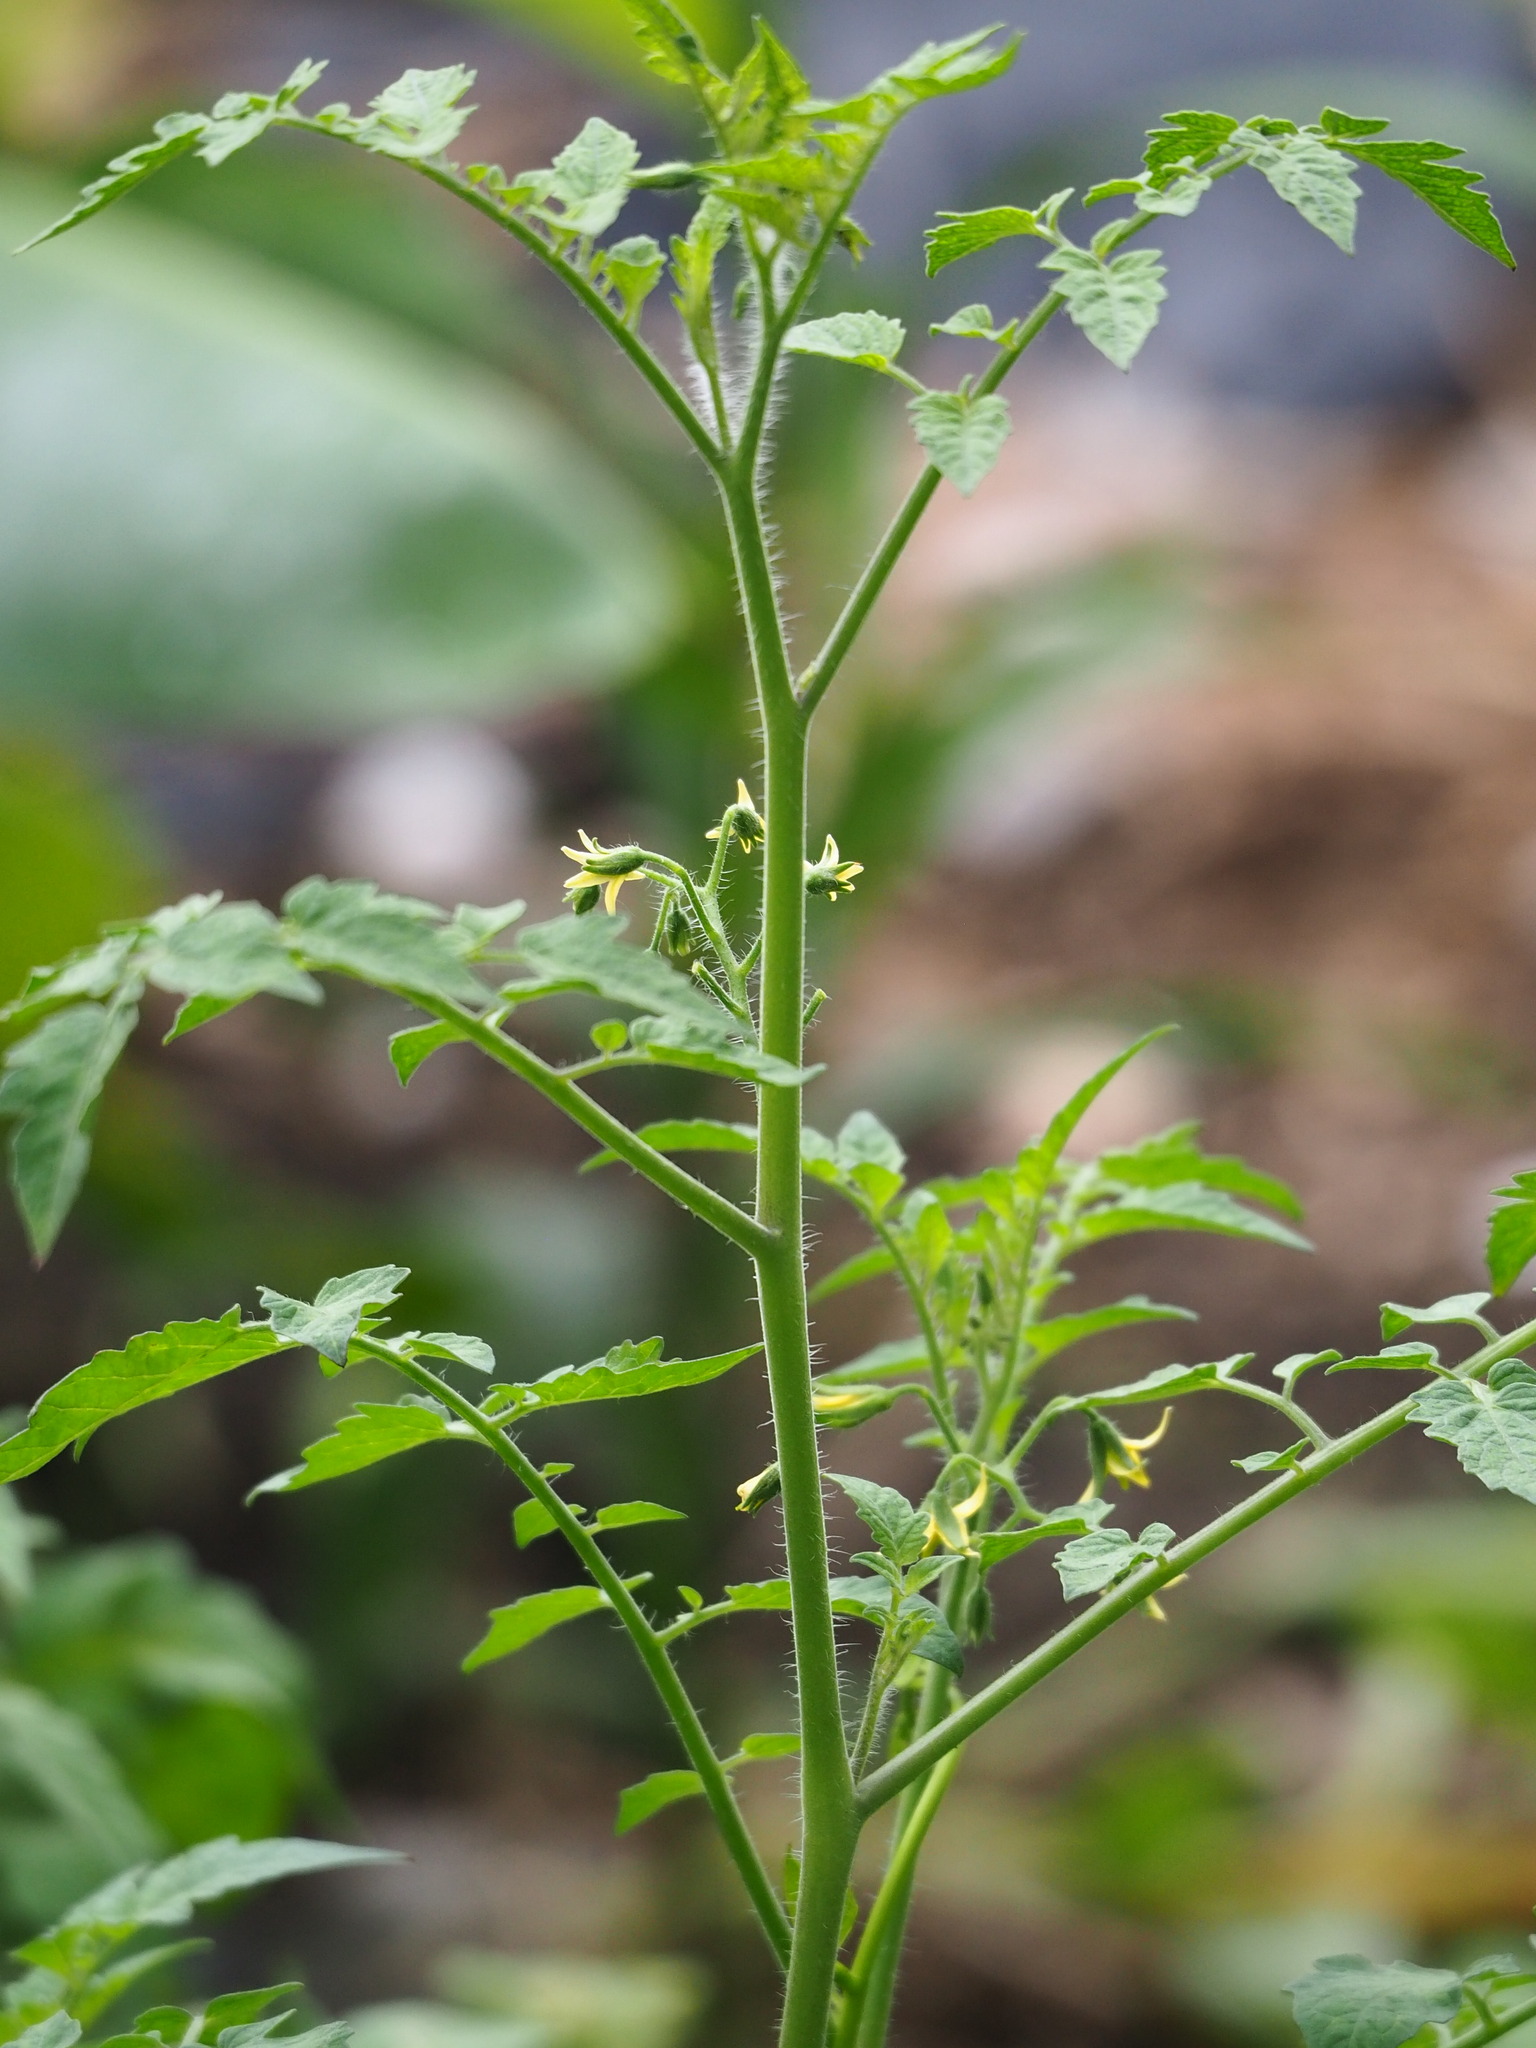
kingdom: Plantae
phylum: Tracheophyta
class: Magnoliopsida
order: Solanales
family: Solanaceae
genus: Solanum
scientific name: Solanum lycopersicum
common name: Garden tomato
